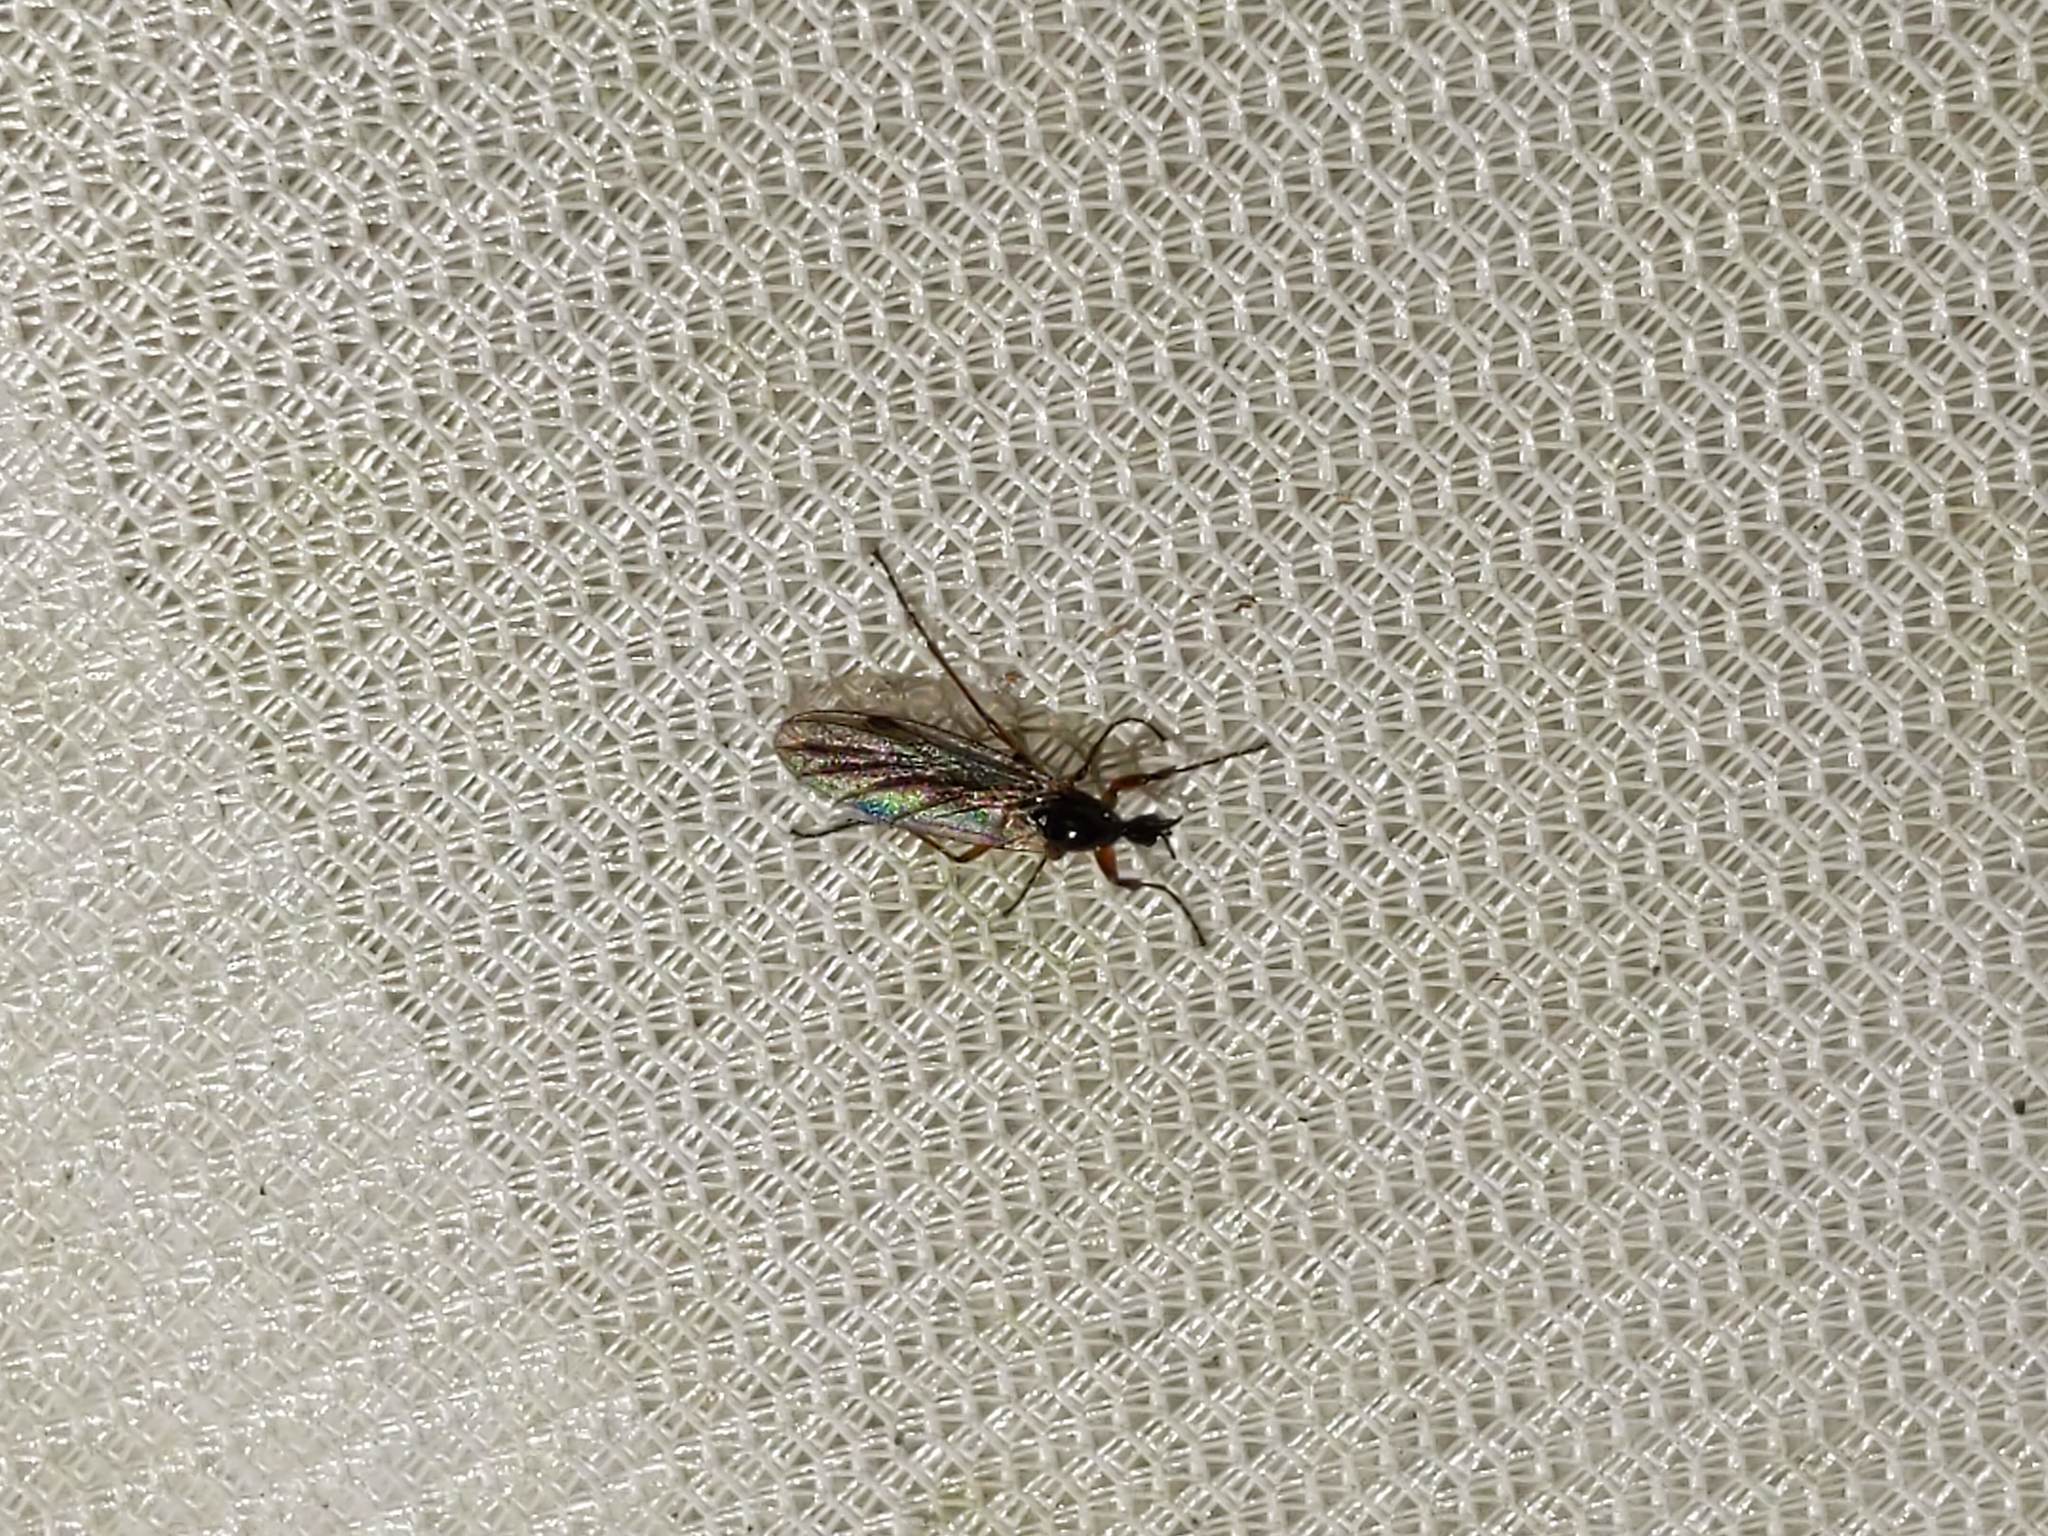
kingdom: Animalia
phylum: Arthropoda
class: Insecta
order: Diptera
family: Bibionidae
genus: Bibio
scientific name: Bibio slossonae
